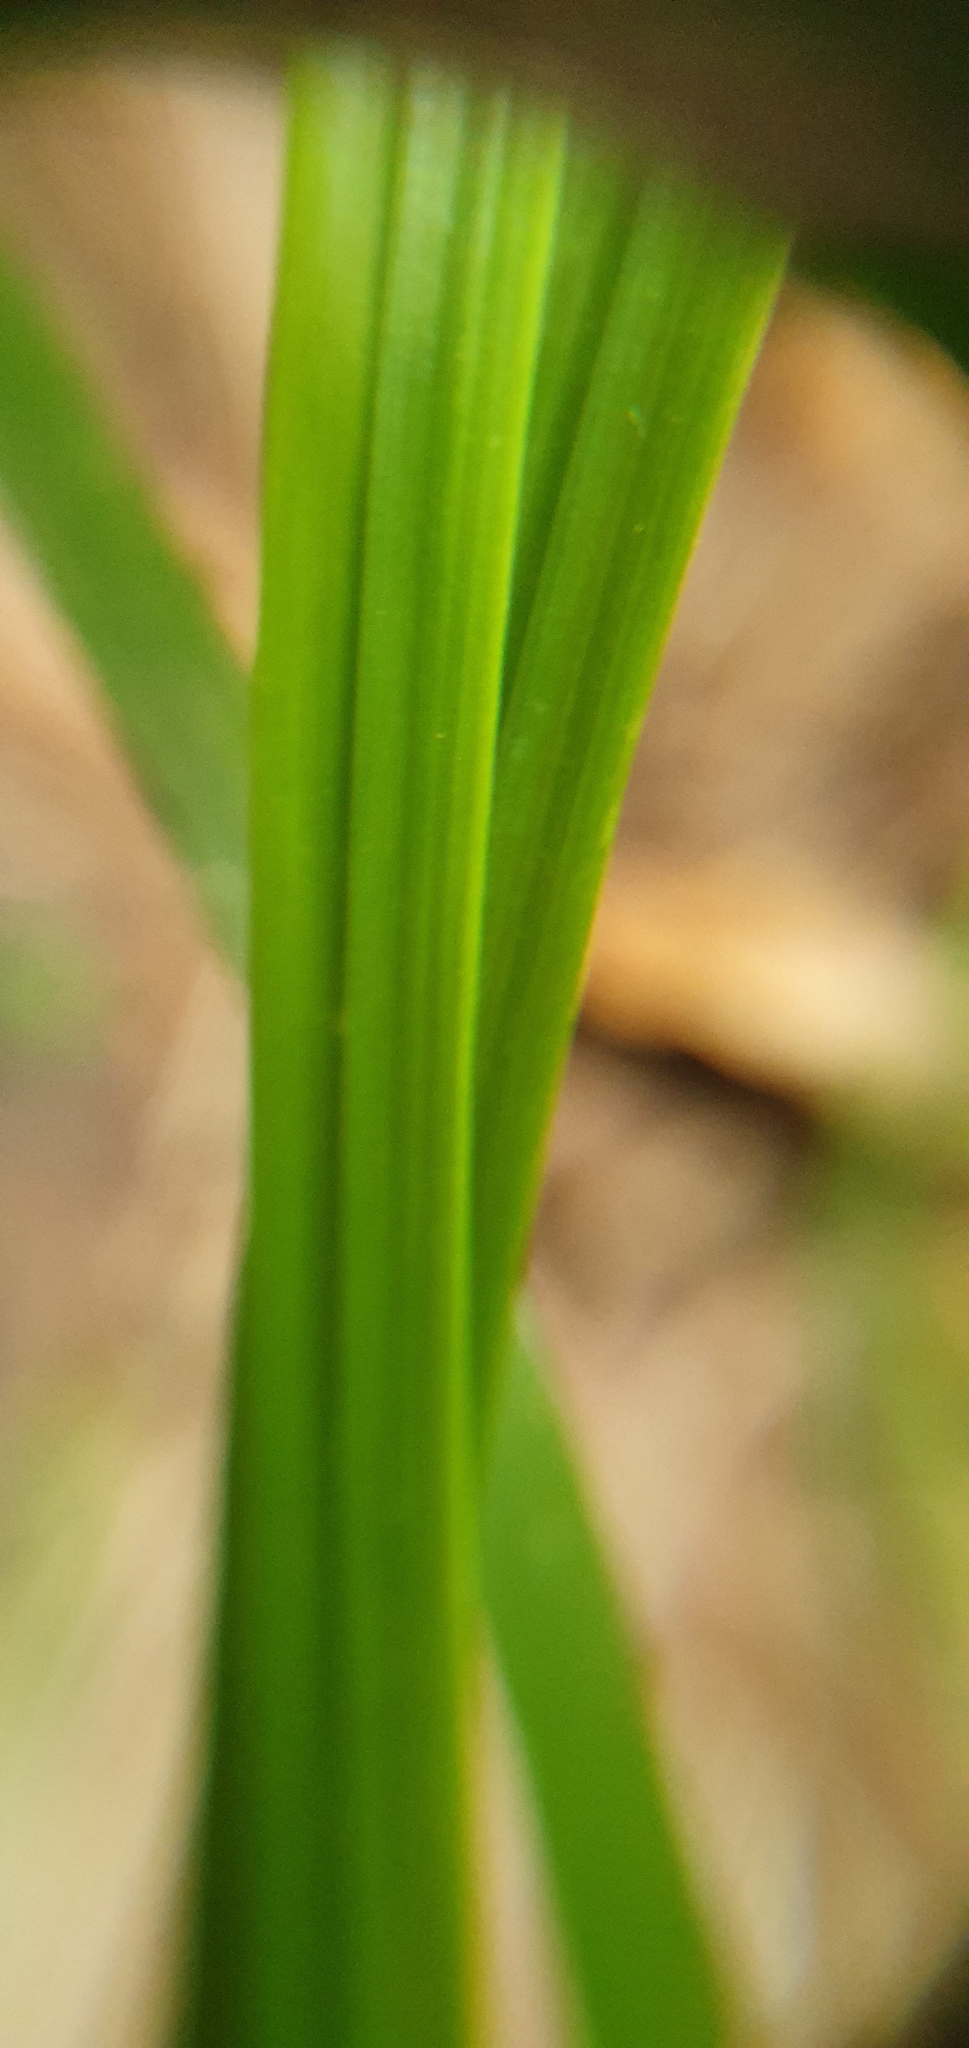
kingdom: Plantae
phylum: Tracheophyta
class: Liliopsida
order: Poales
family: Poaceae
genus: Calamagrostis
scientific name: Calamagrostis villosa
